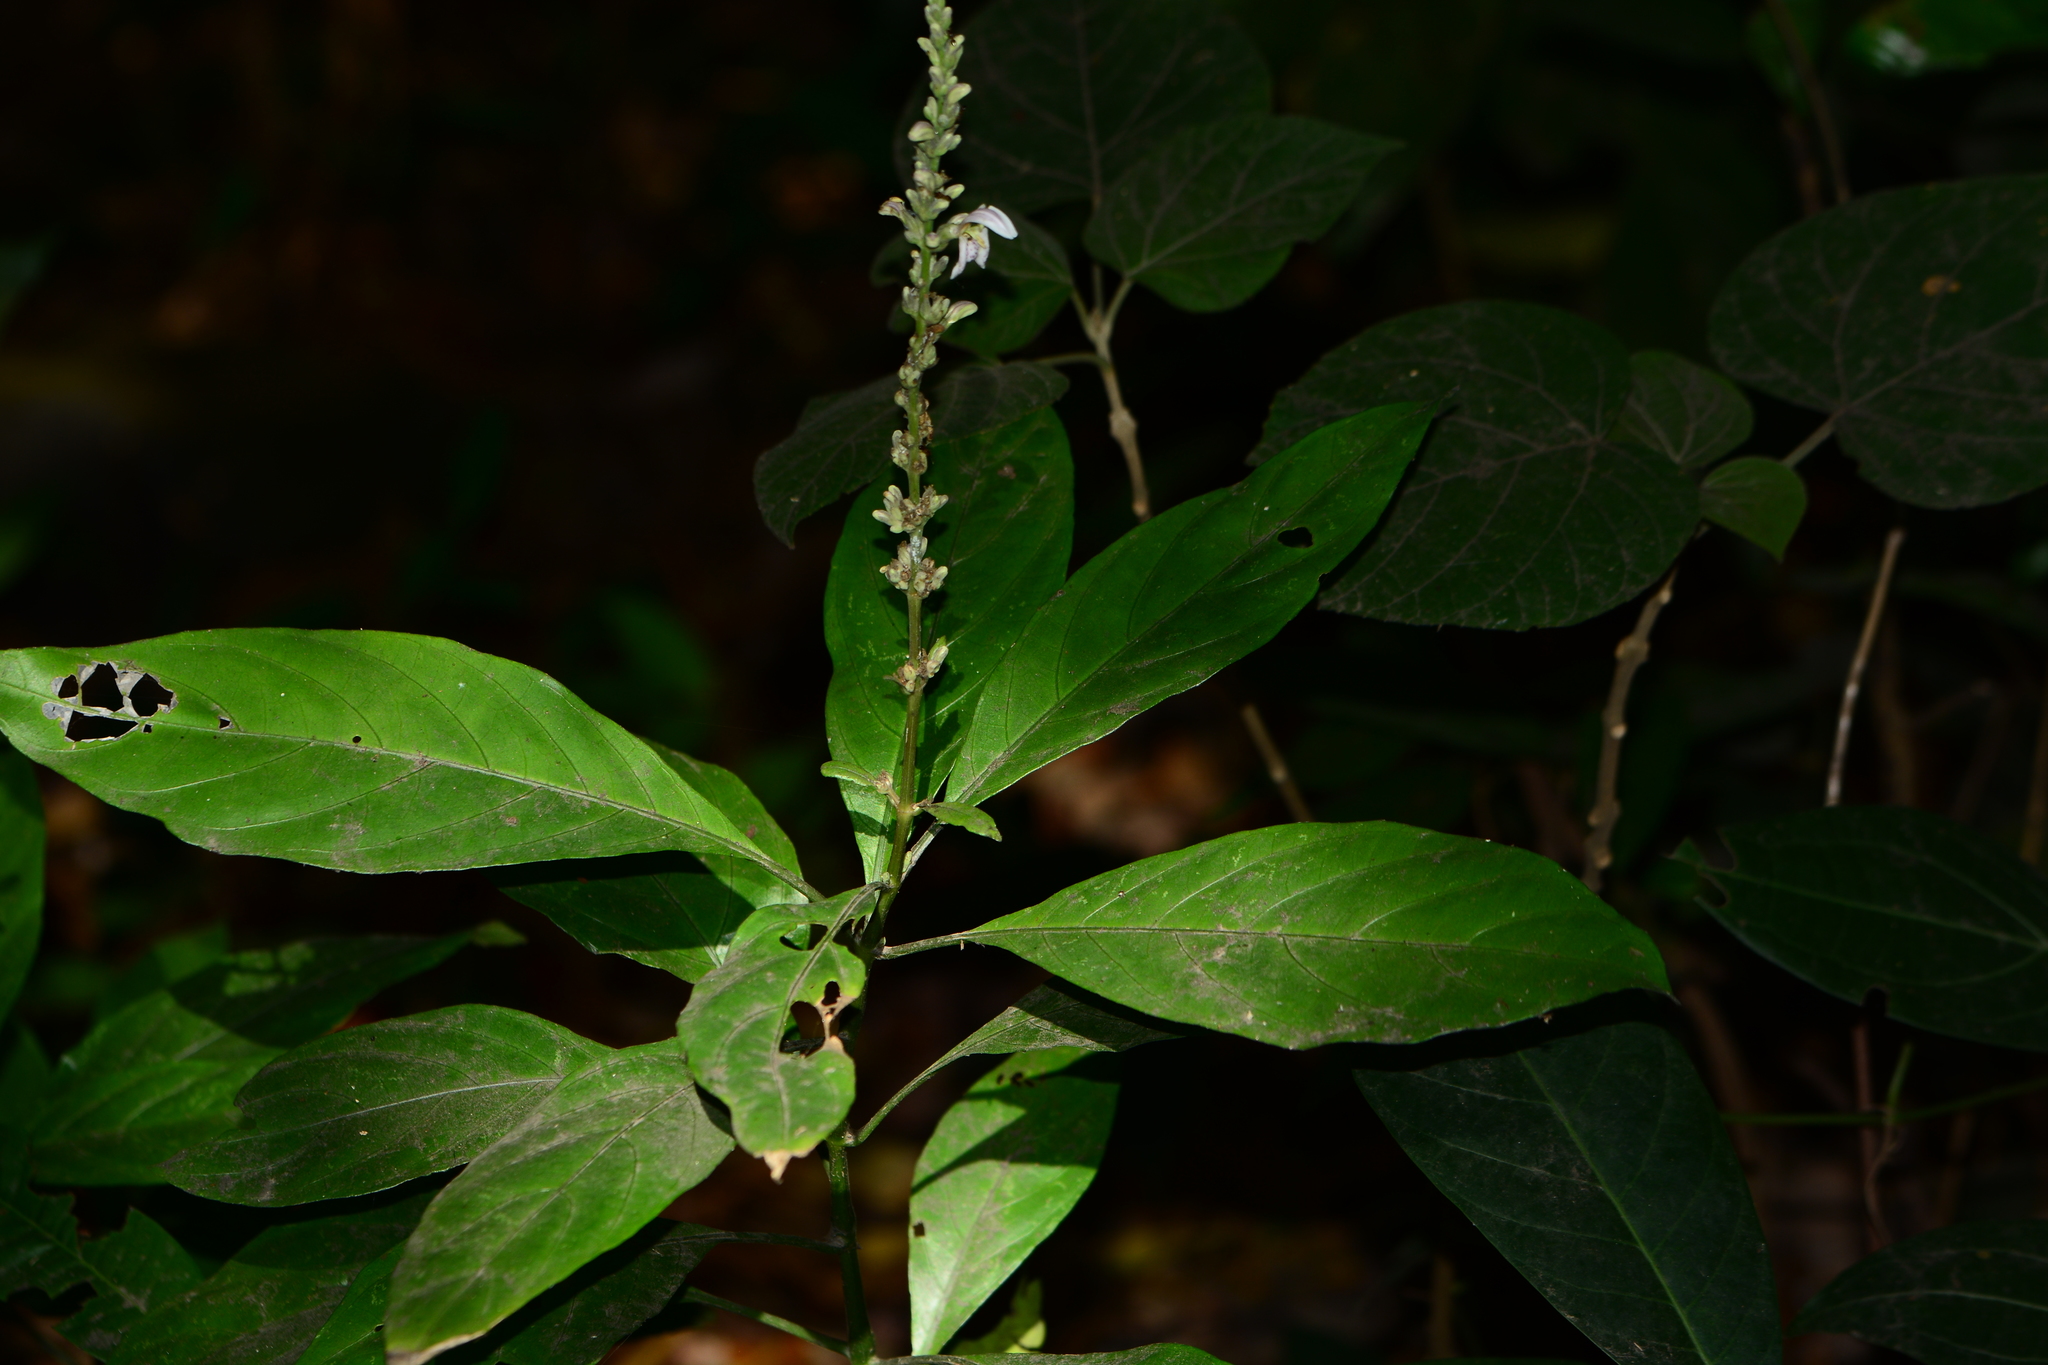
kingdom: Plantae
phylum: Tracheophyta
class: Magnoliopsida
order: Lamiales
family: Acanthaceae
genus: Justicia
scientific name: Justicia santapaui
